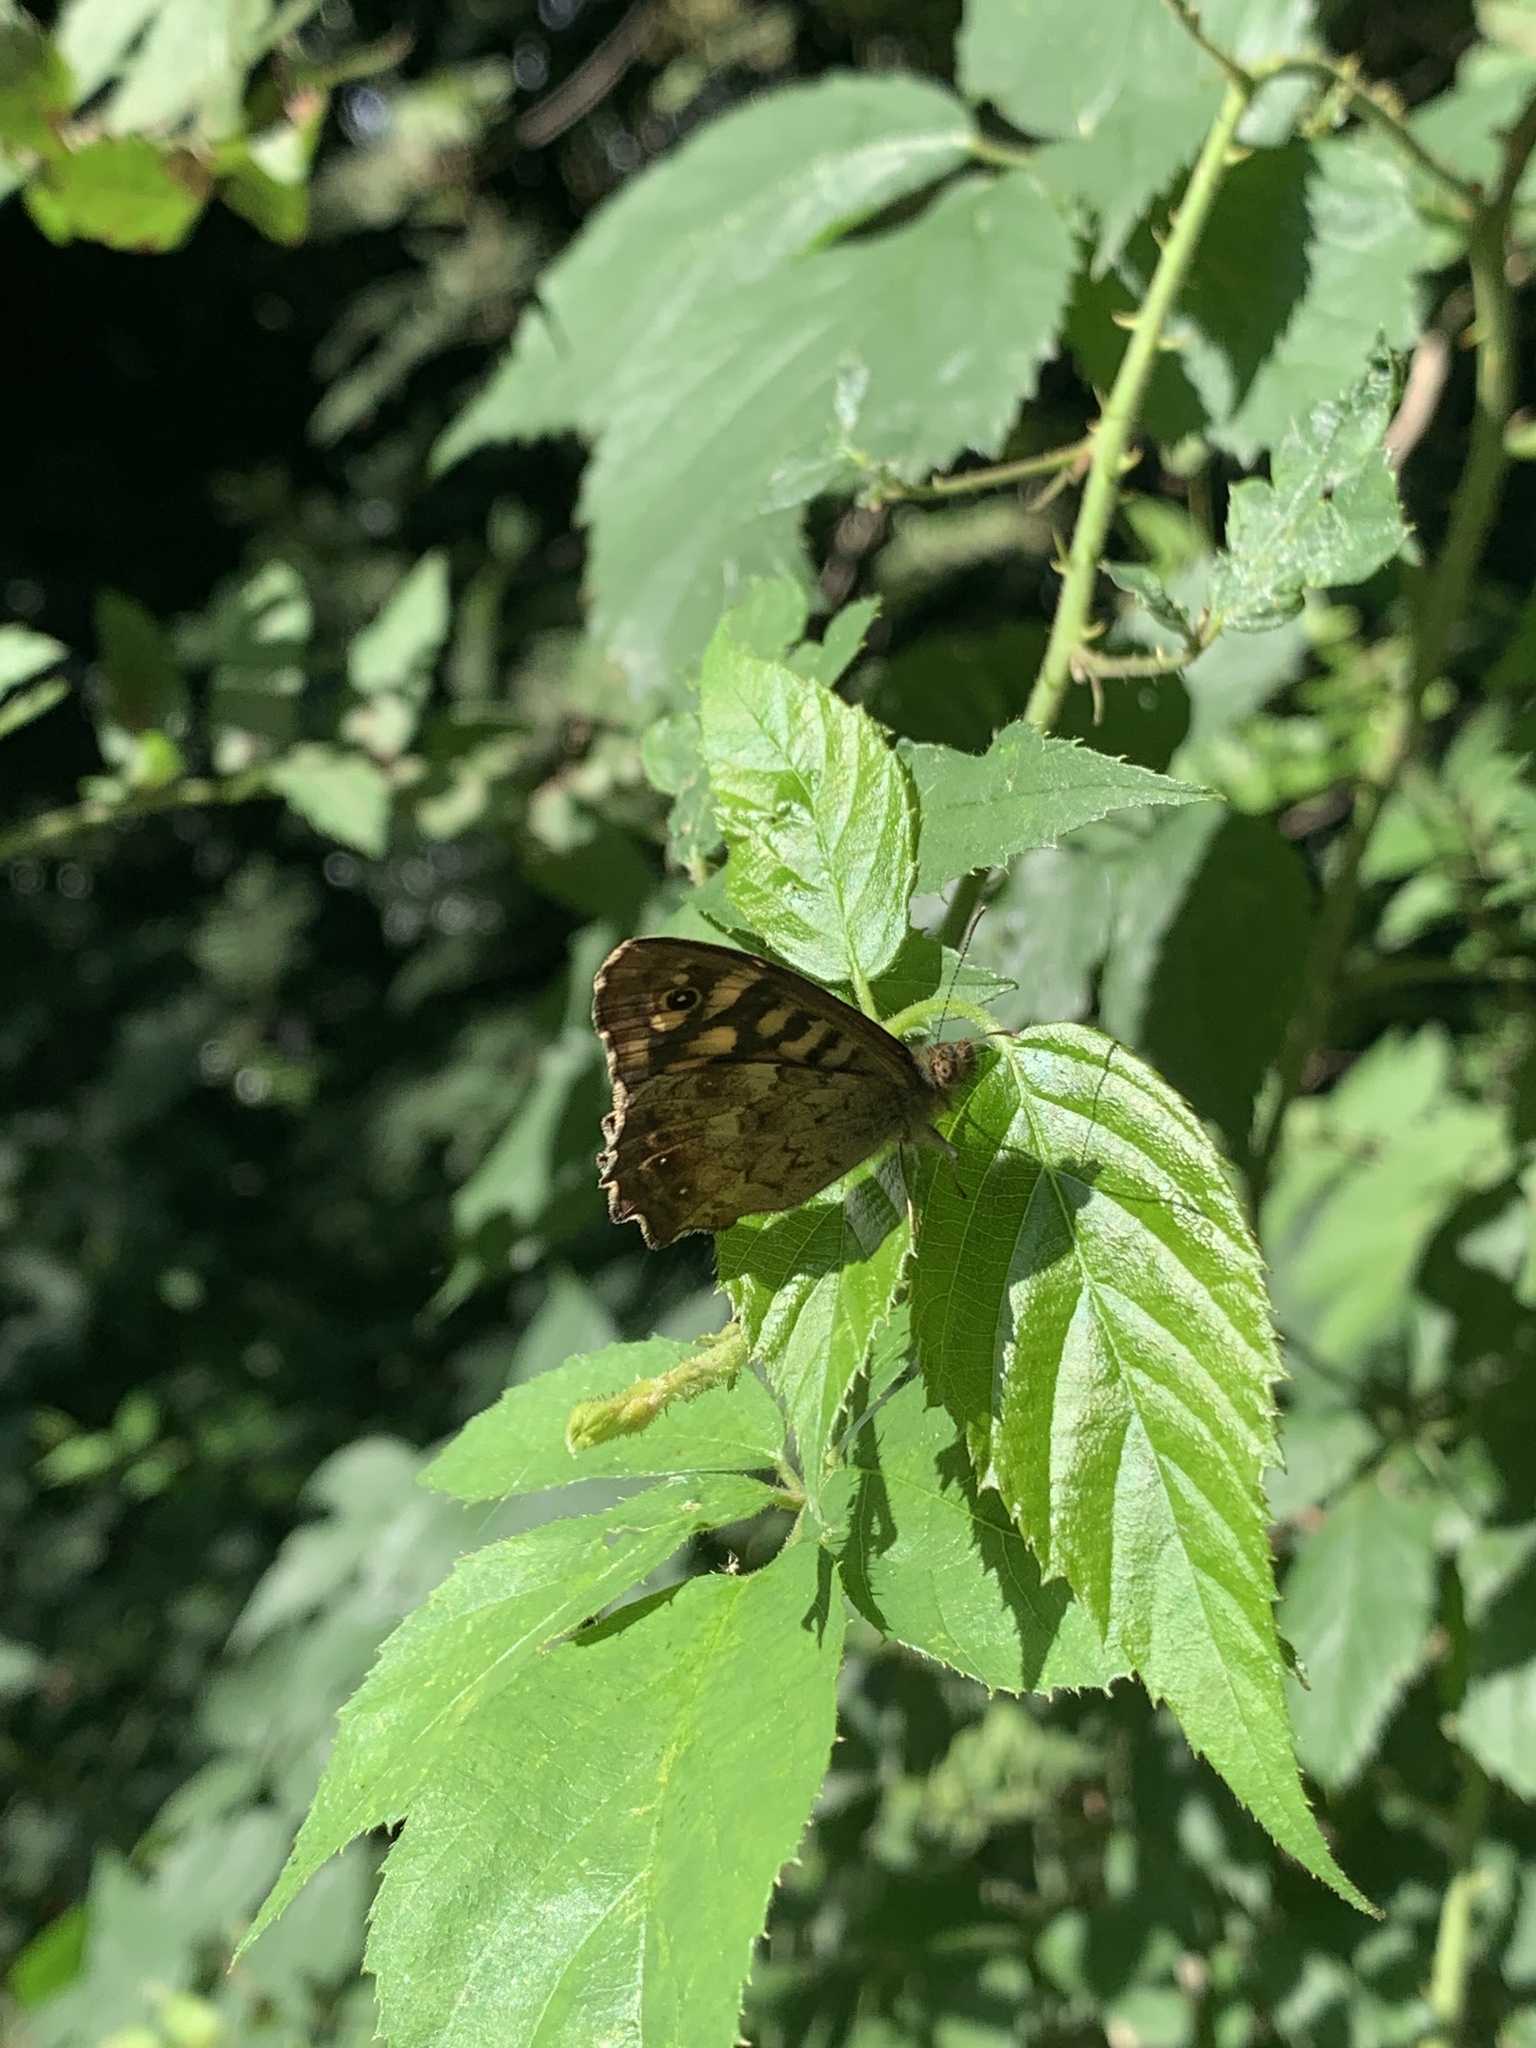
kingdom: Animalia
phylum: Arthropoda
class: Insecta
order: Lepidoptera
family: Nymphalidae
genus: Pararge
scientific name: Pararge aegeria
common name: Speckled wood
